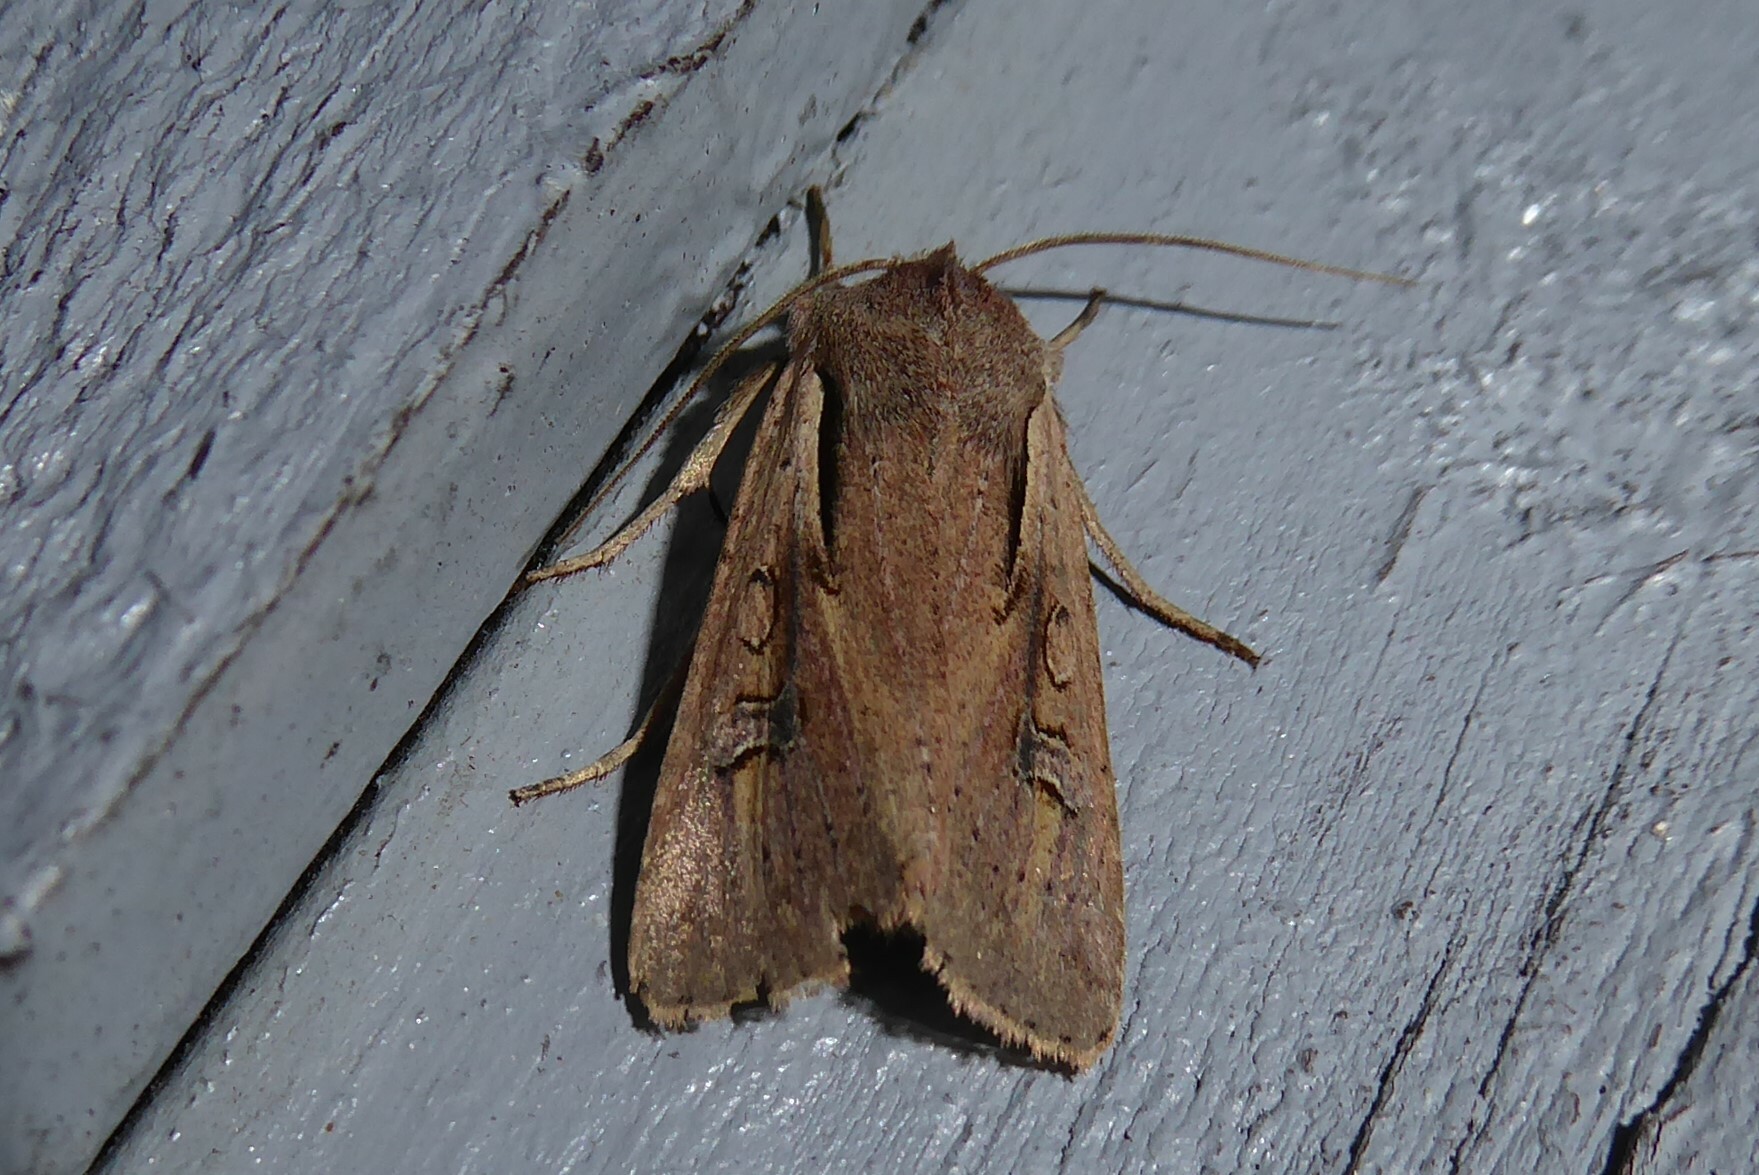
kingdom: Animalia
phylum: Arthropoda
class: Insecta
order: Lepidoptera
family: Noctuidae
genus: Ichneutica
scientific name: Ichneutica atristriga
